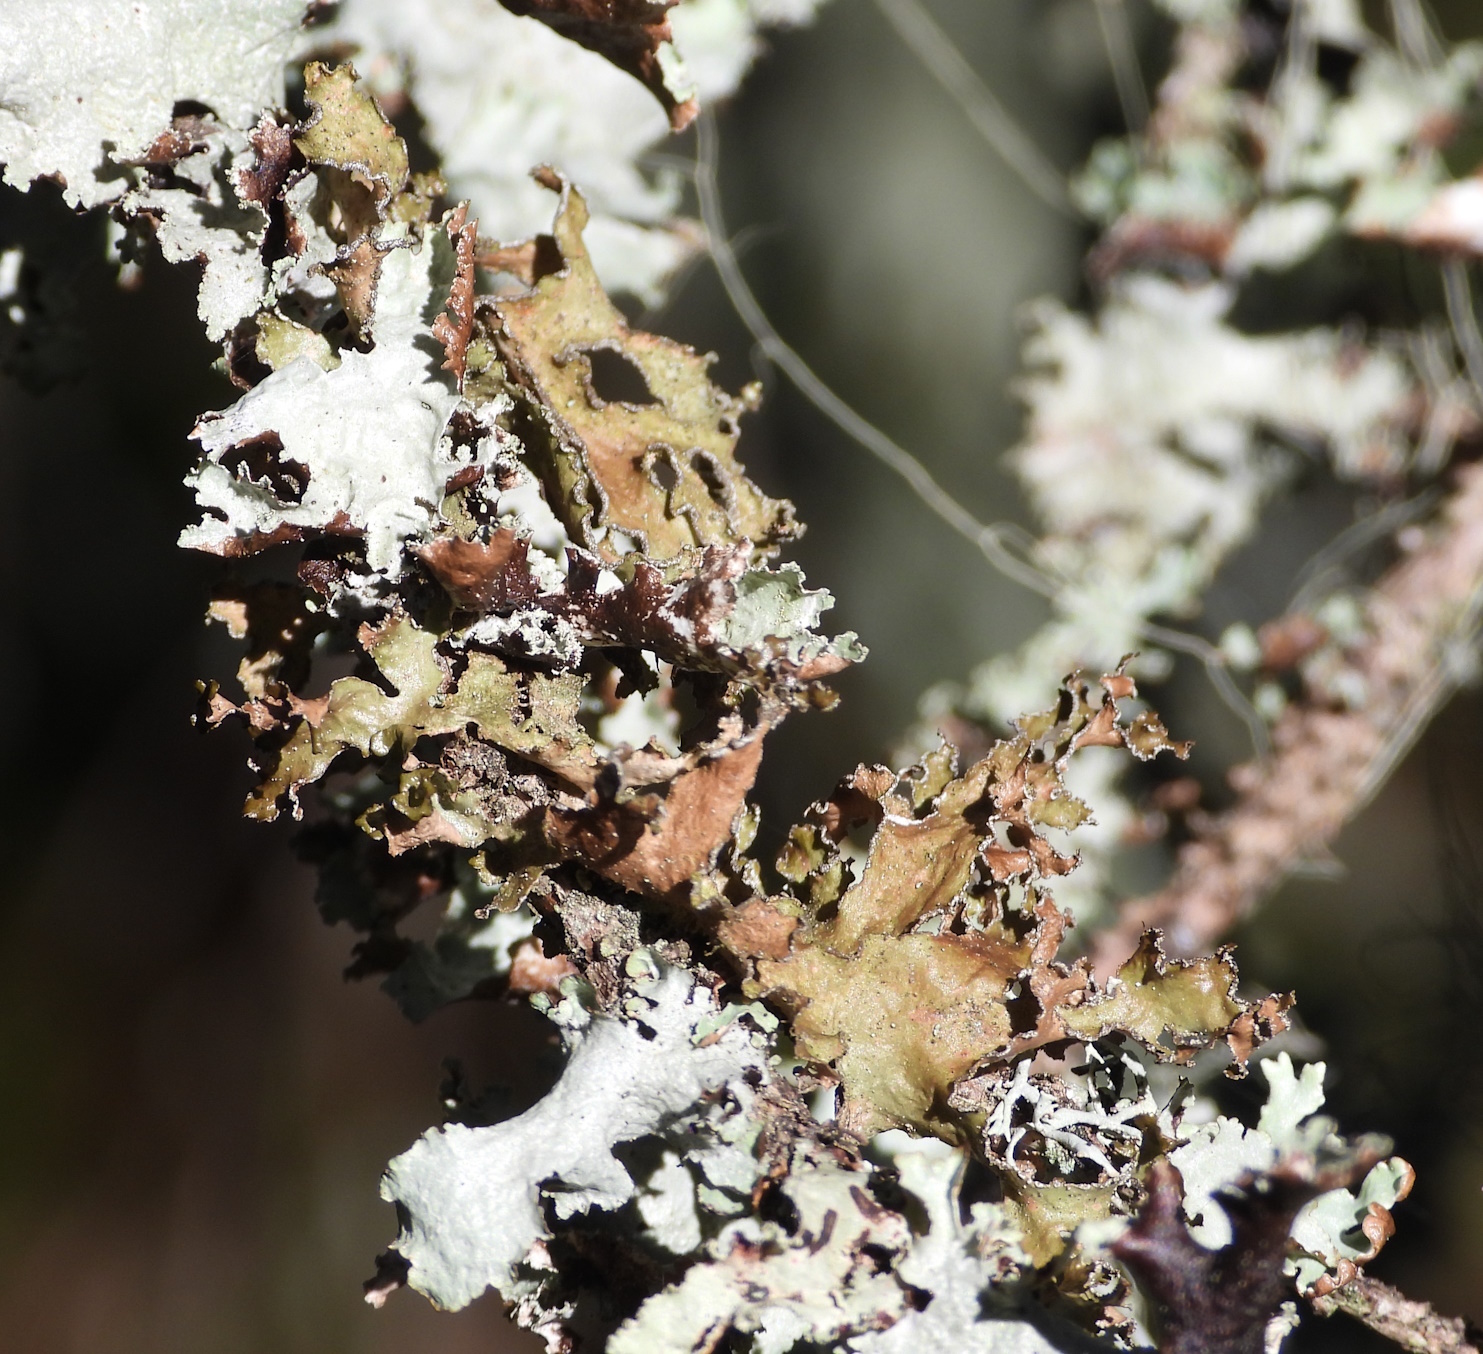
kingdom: Fungi
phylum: Ascomycota
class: Lecanoromycetes
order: Lecanorales
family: Parmeliaceae
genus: Nephromopsis
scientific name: Nephromopsis chlorophylla
